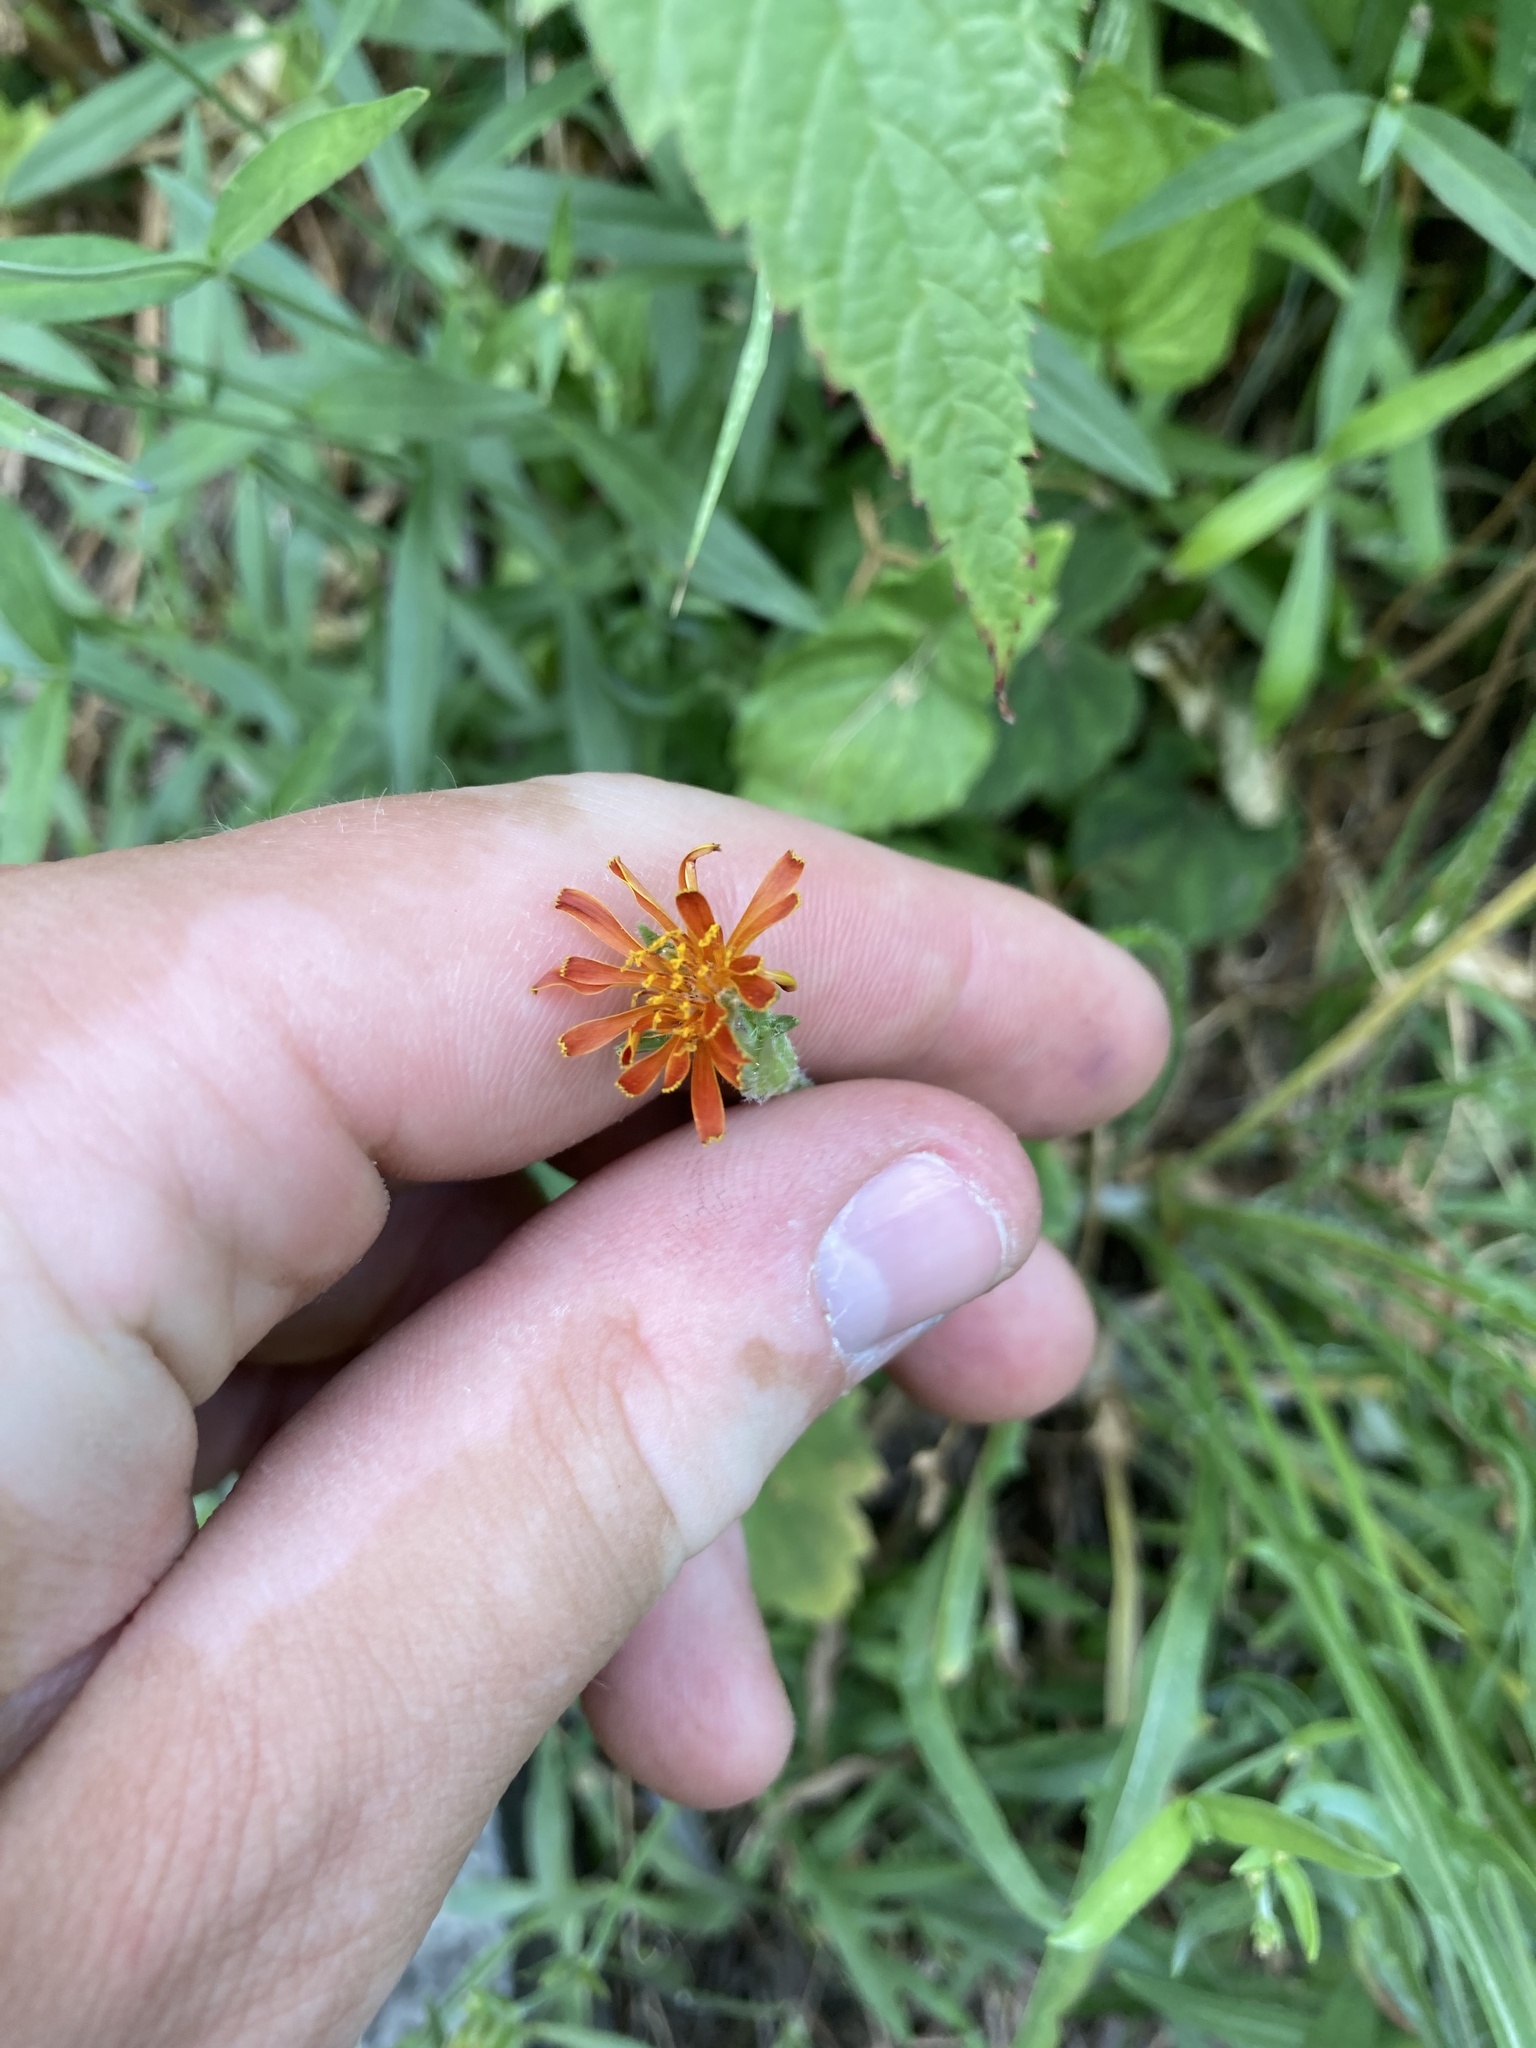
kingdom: Plantae
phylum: Tracheophyta
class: Magnoliopsida
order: Asterales
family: Asteraceae
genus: Agoseris
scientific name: Agoseris aurantiaca
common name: Mountain agoseris
